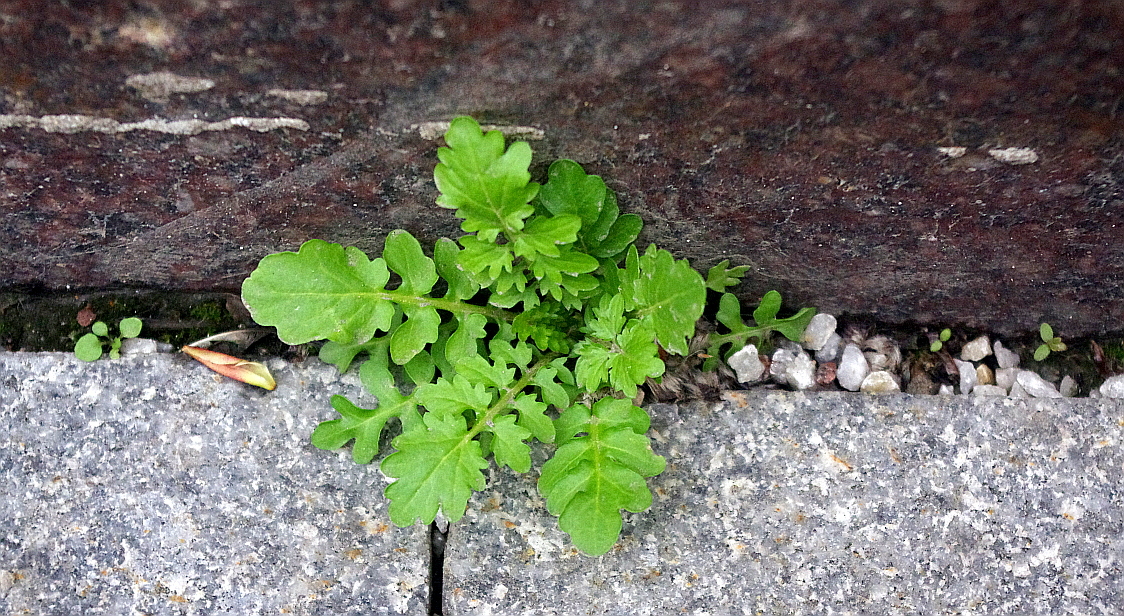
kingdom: Plantae
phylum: Tracheophyta
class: Magnoliopsida
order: Brassicales
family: Brassicaceae
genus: Rorippa
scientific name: Rorippa palustris
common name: Marsh yellow-cress
